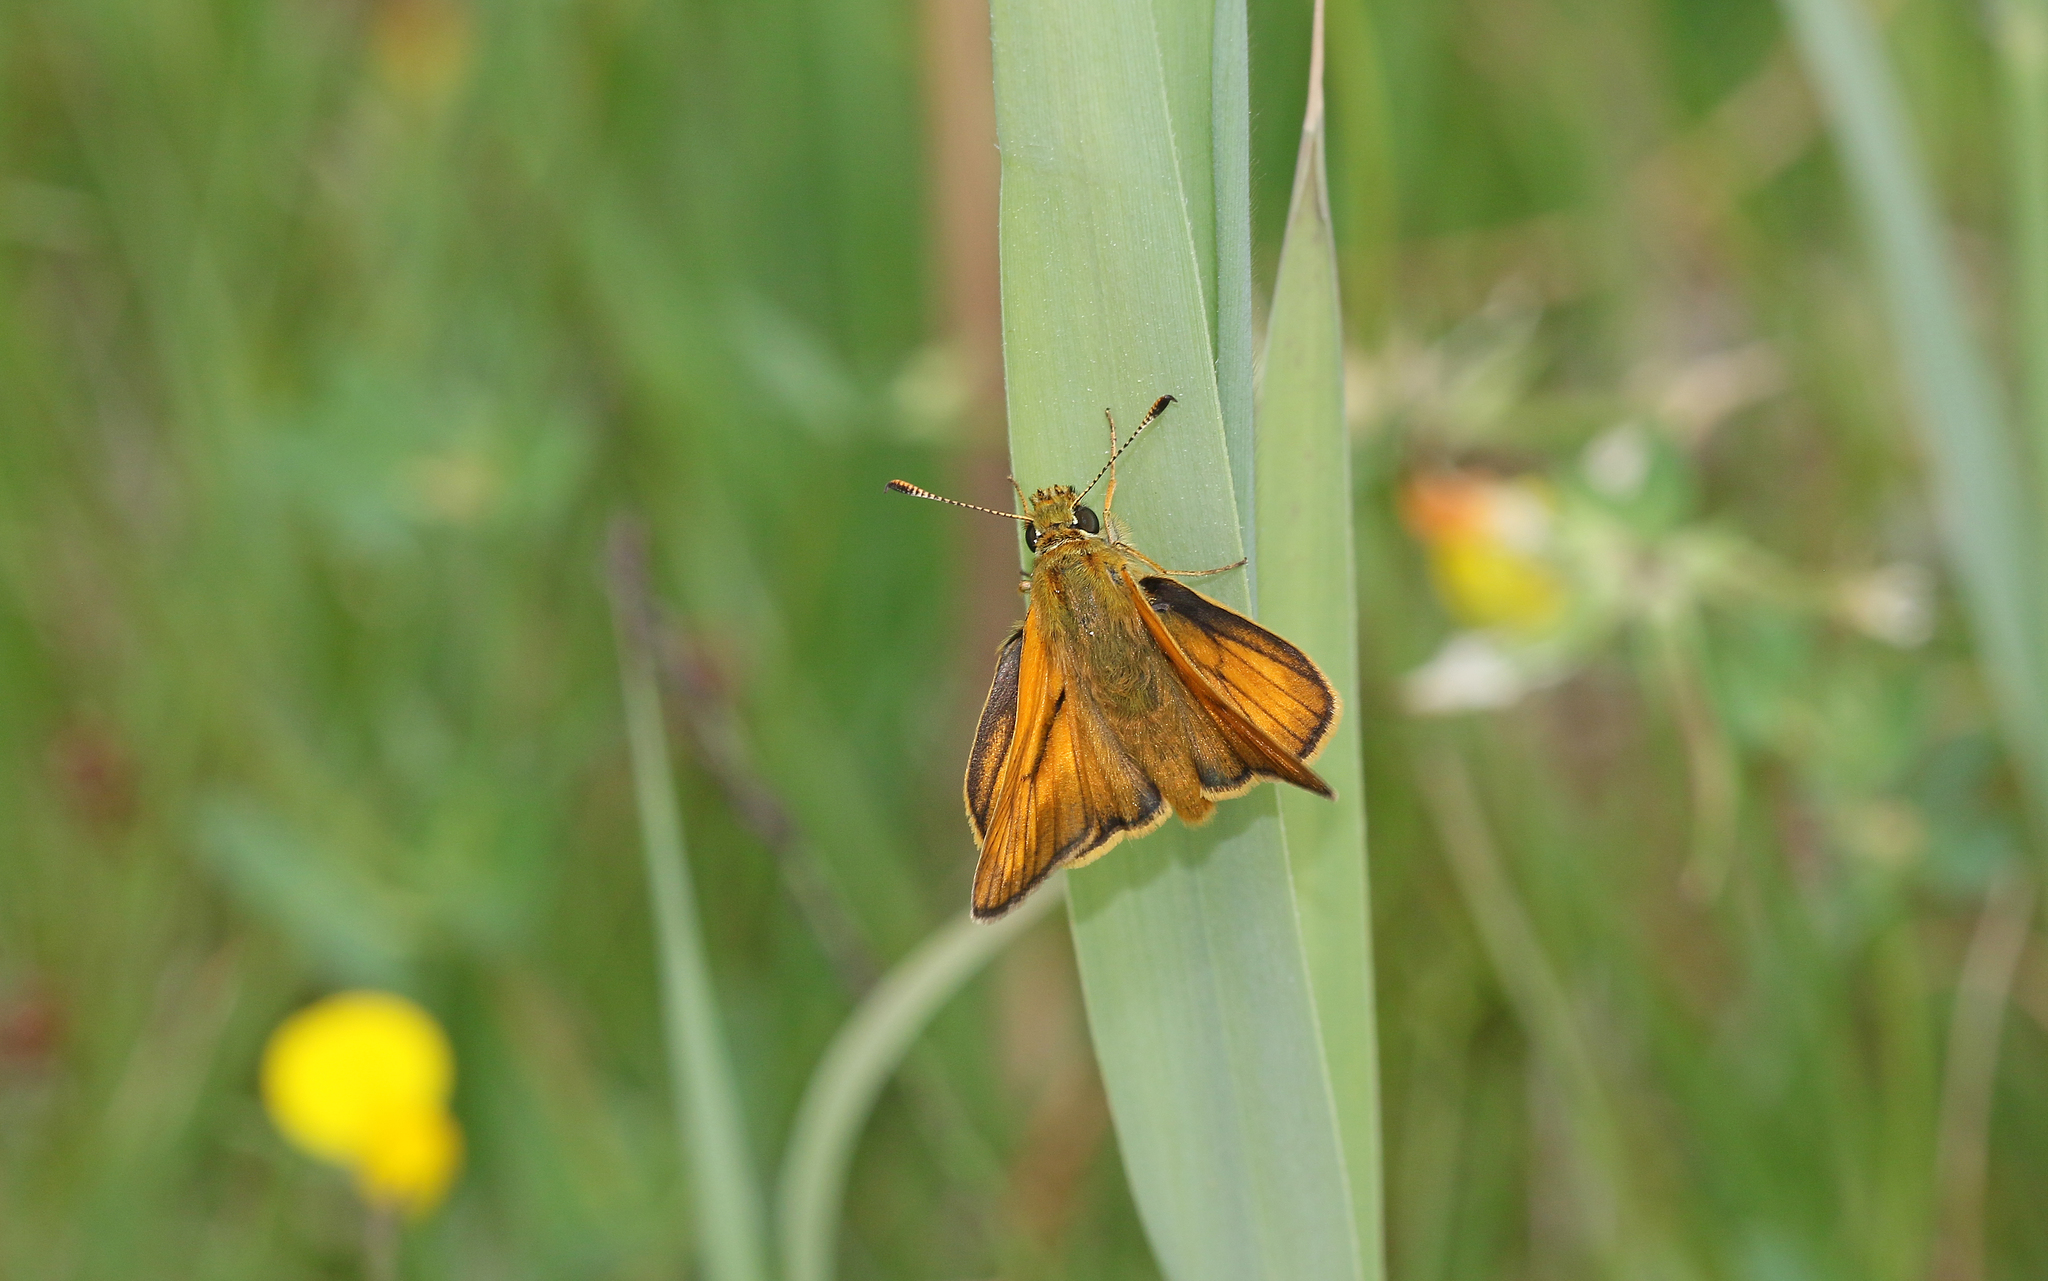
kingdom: Animalia
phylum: Arthropoda
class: Insecta
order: Lepidoptera
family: Hesperiidae
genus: Ochlodes
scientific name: Ochlodes venata
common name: Large skipper
